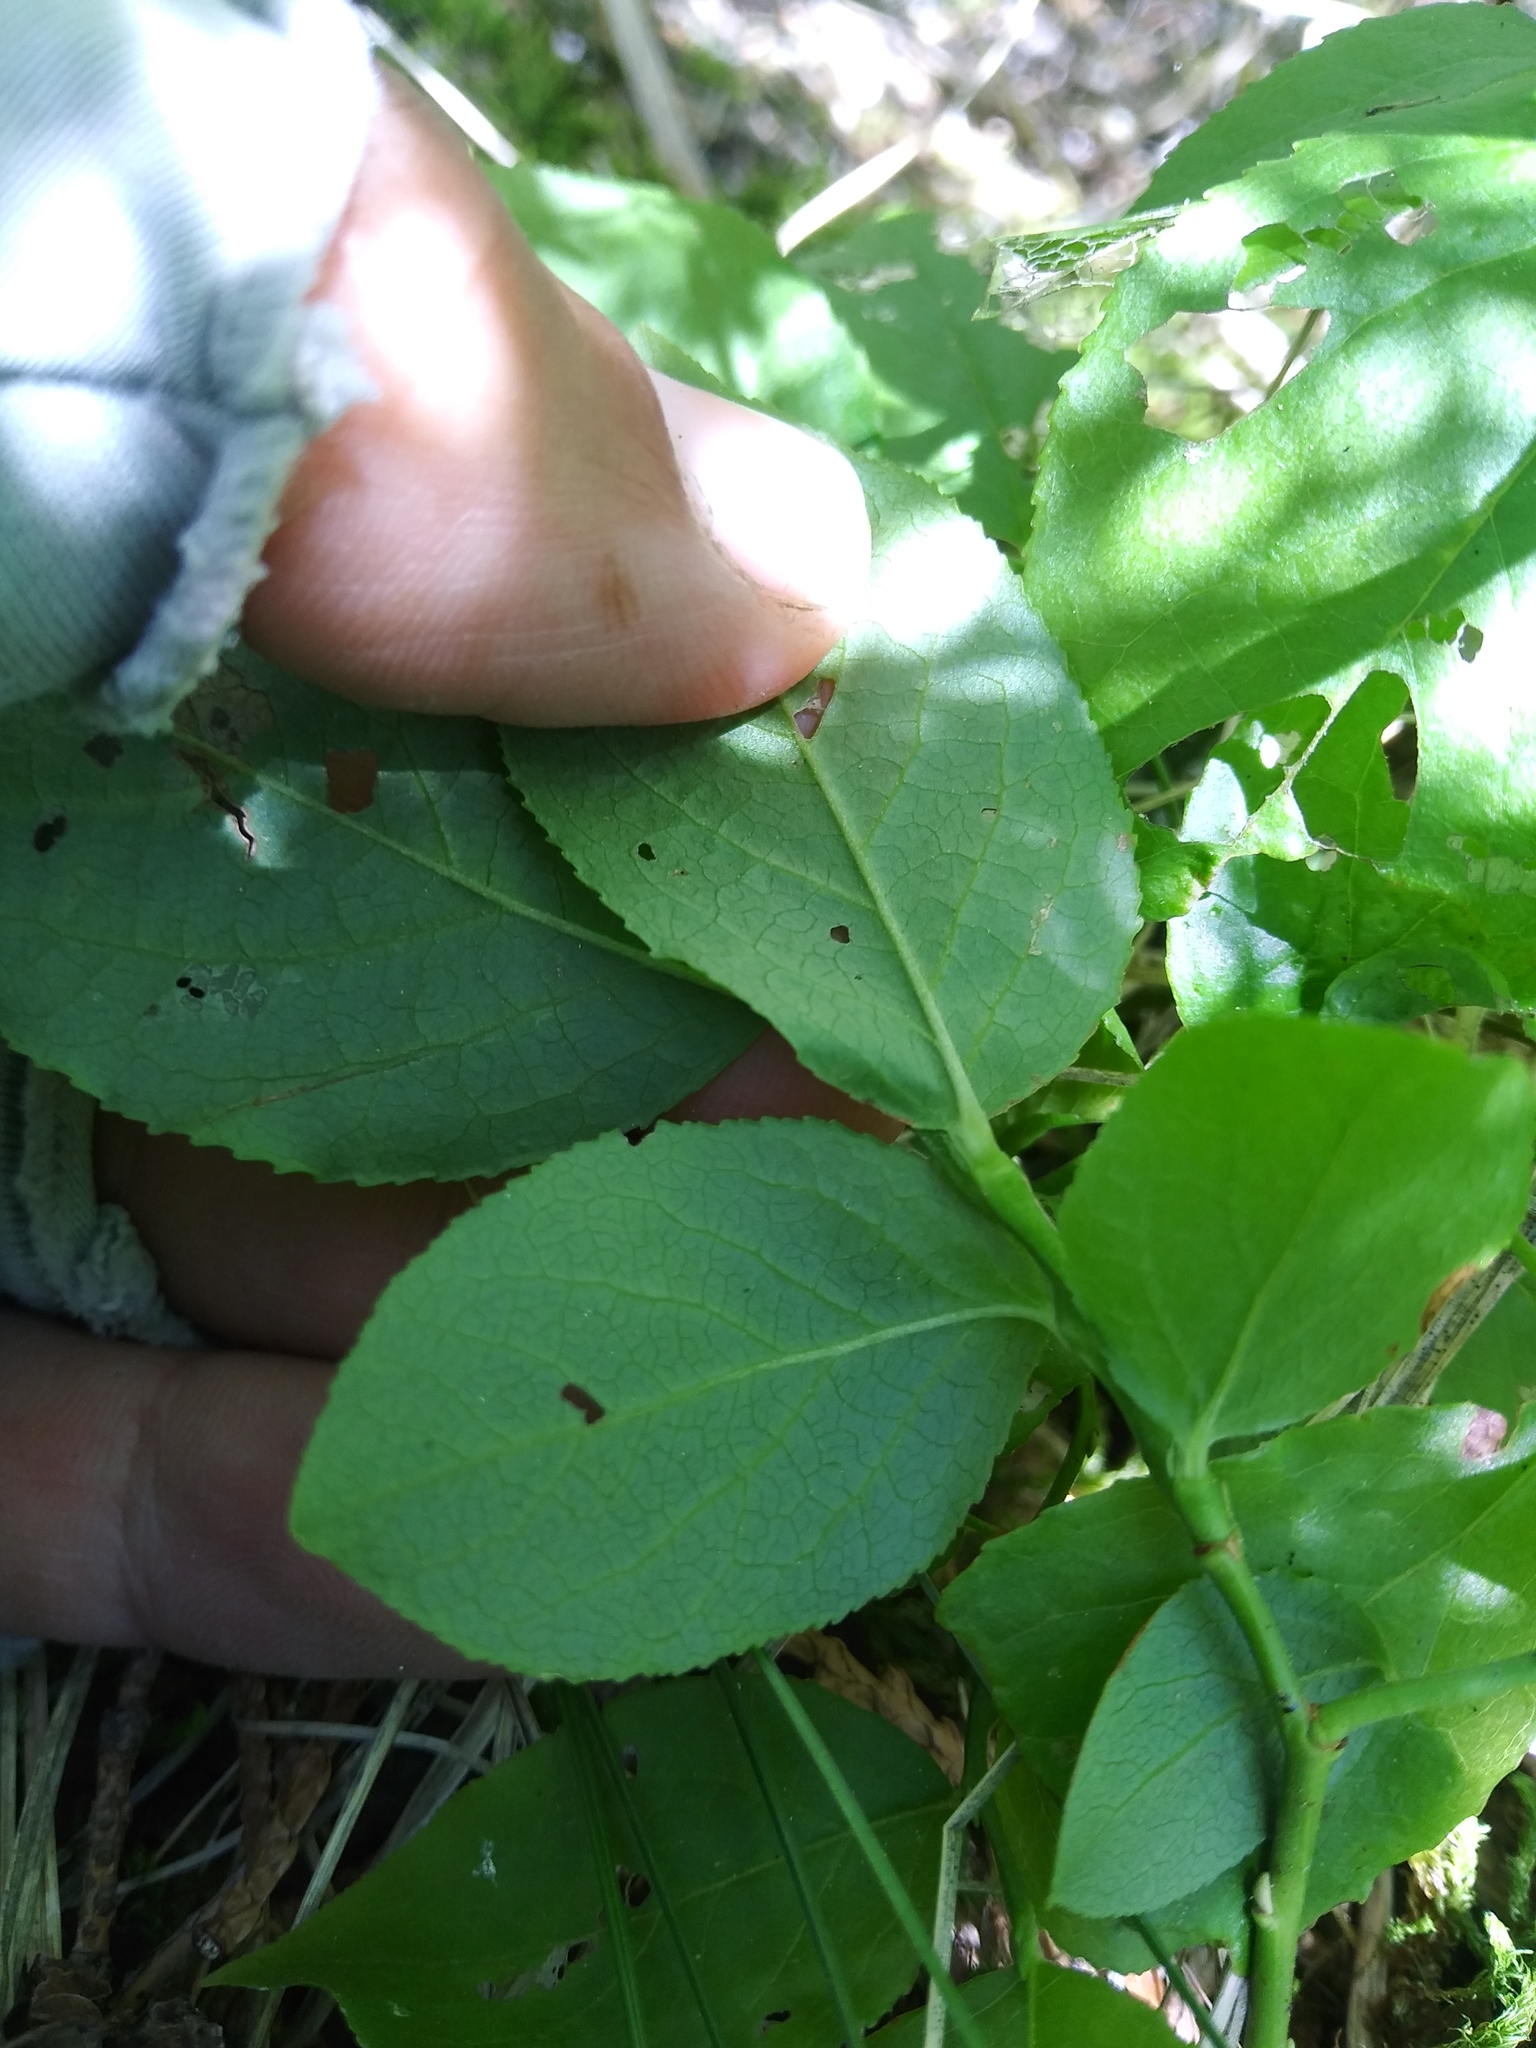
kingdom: Plantae
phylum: Tracheophyta
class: Magnoliopsida
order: Ericales
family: Ericaceae
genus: Vaccinium
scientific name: Vaccinium membranaceum
